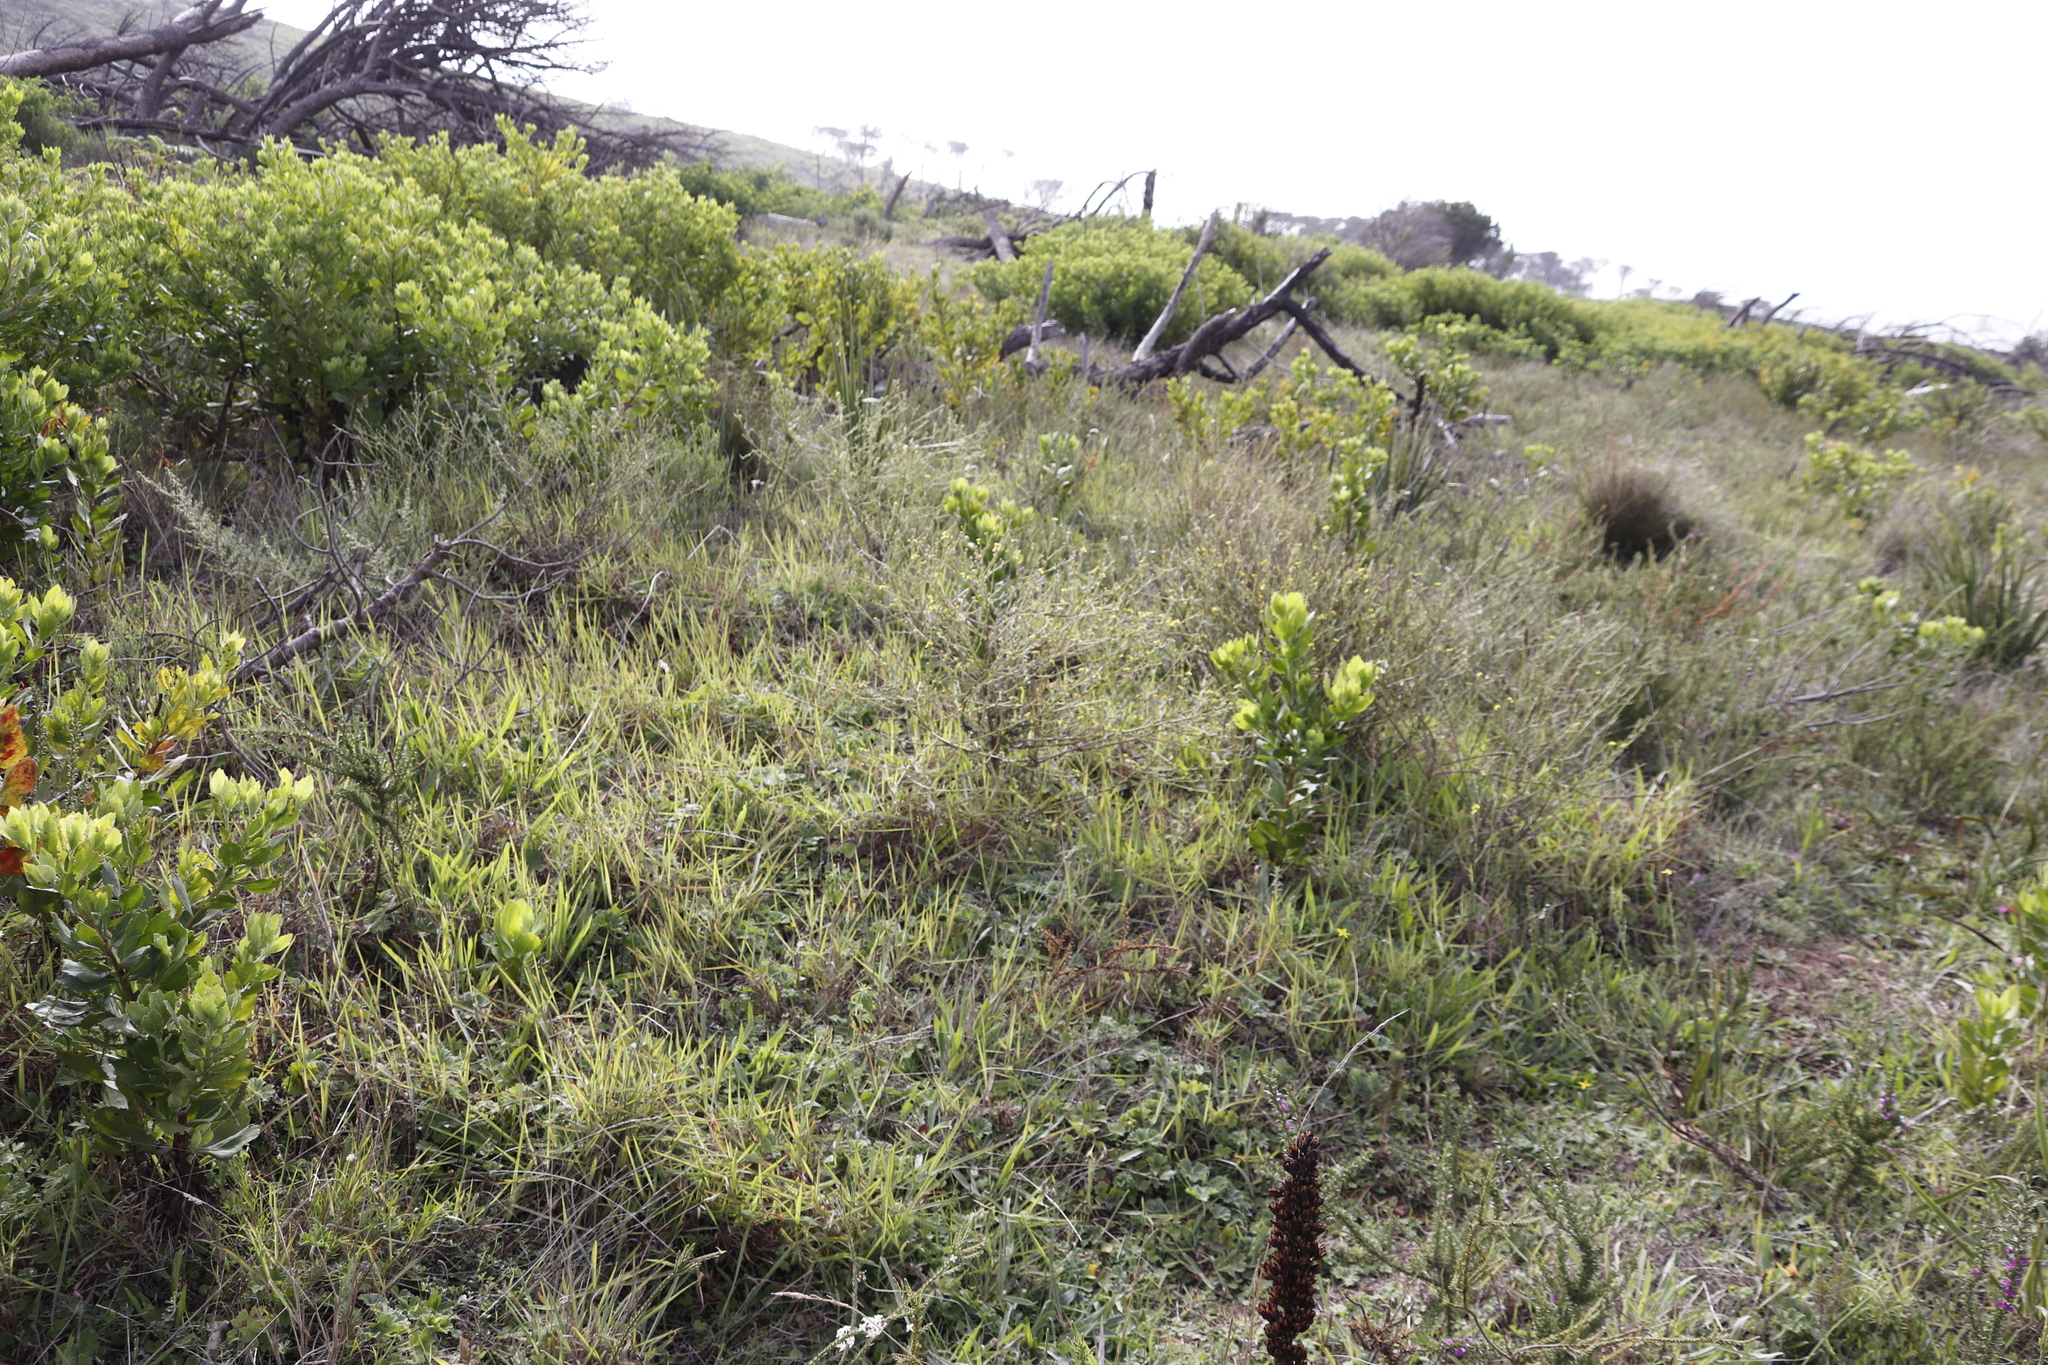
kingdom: Plantae
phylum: Tracheophyta
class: Magnoliopsida
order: Asterales
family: Asteraceae
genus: Senecio
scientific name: Senecio pubigerus
